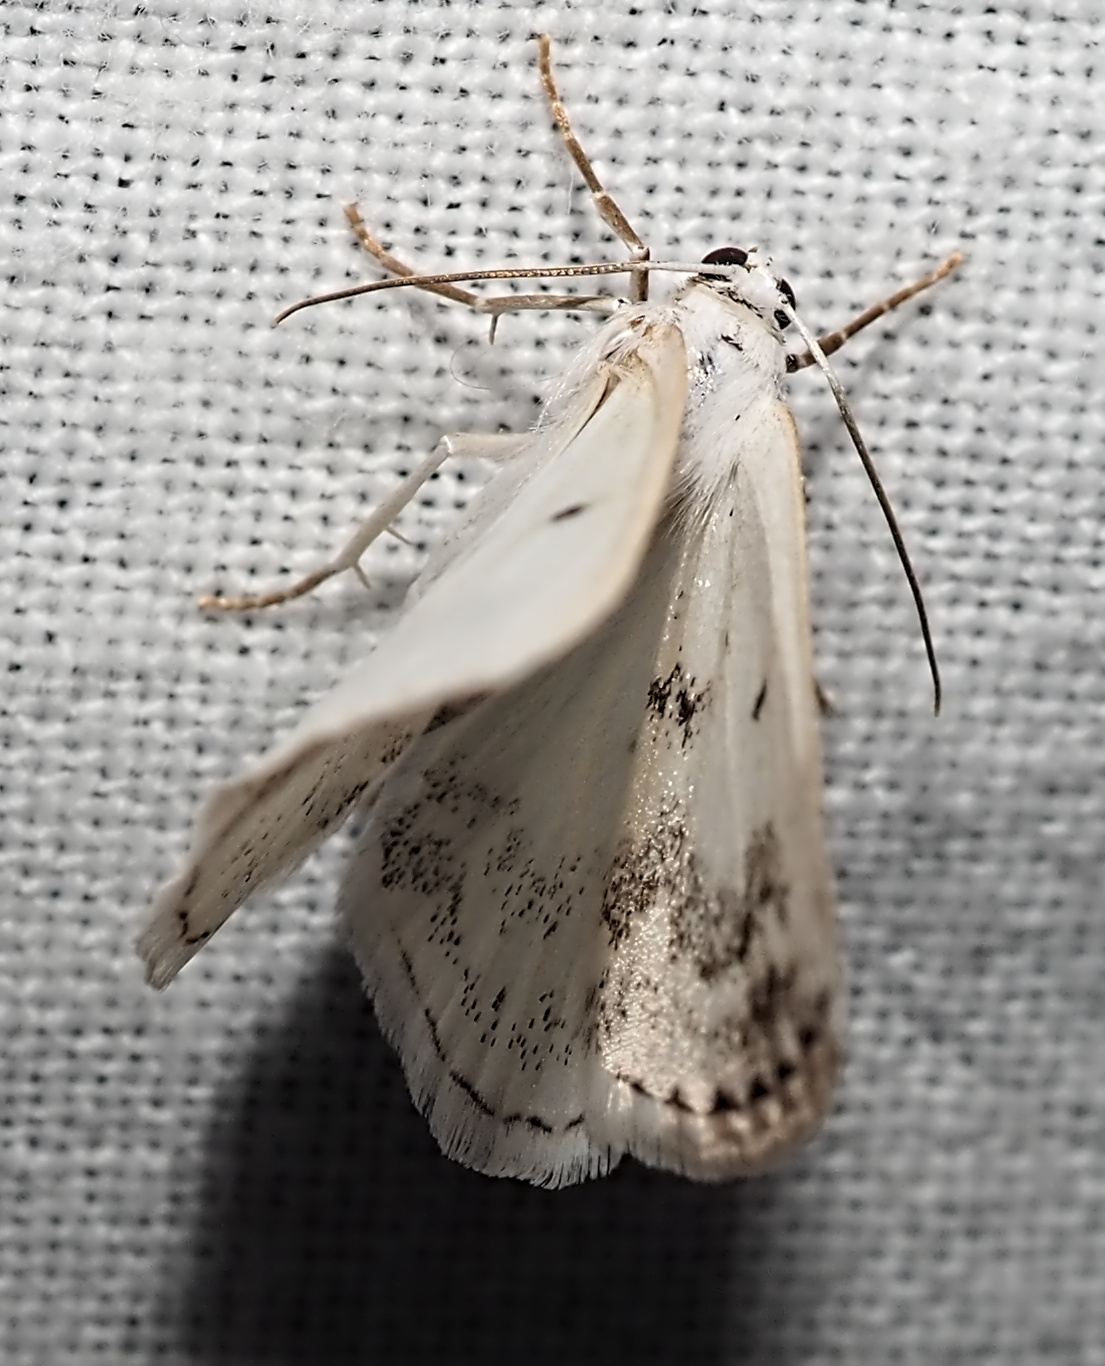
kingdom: Animalia
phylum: Arthropoda
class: Insecta
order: Lepidoptera
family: Geometridae
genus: Lomographa
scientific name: Lomographa temerata
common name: Clouded silver
